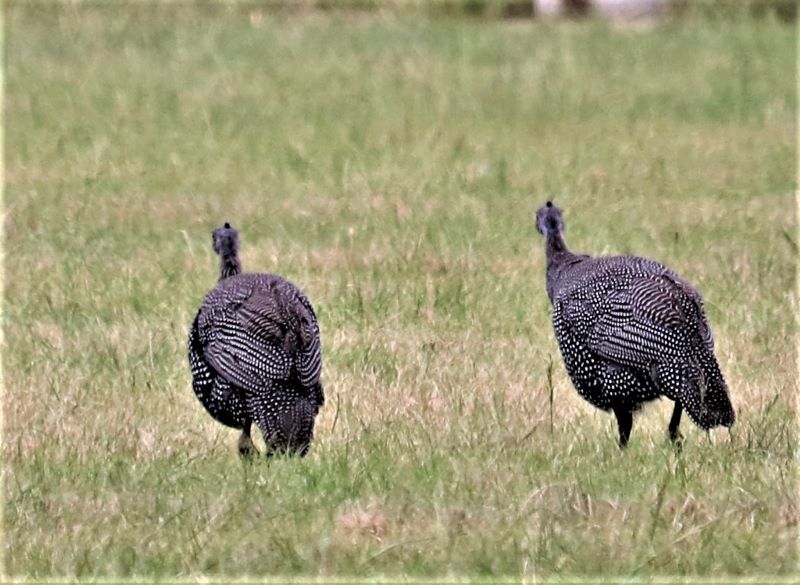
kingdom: Animalia
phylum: Chordata
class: Aves
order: Galliformes
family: Numididae
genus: Numida
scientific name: Numida meleagris
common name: Helmeted guineafowl
